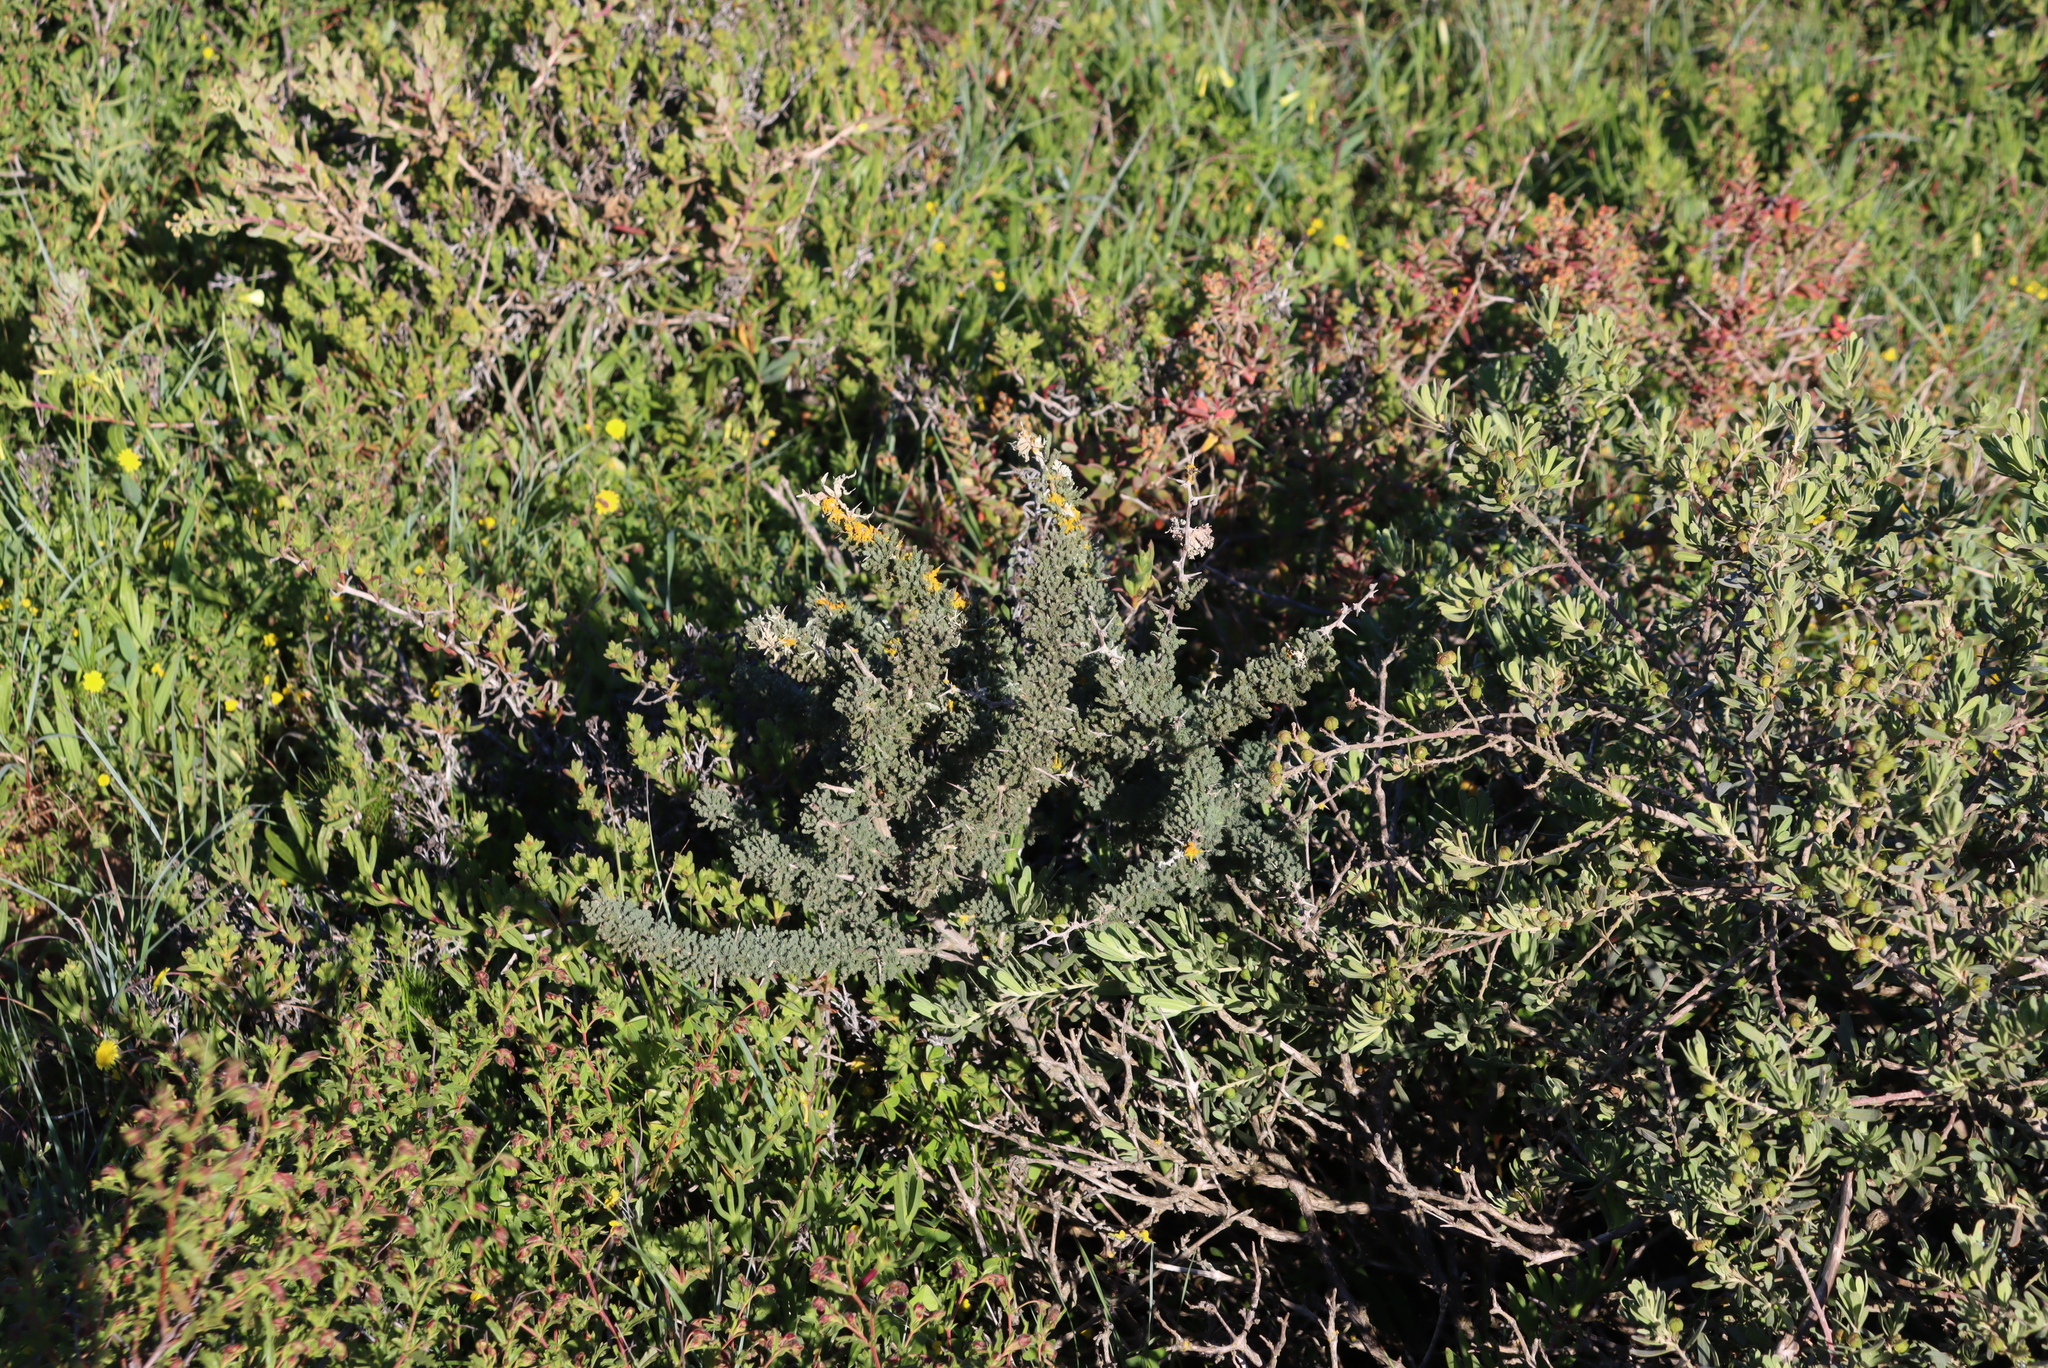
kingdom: Plantae
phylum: Tracheophyta
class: Liliopsida
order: Asparagales
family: Asparagaceae
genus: Asparagus
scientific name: Asparagus capensis
